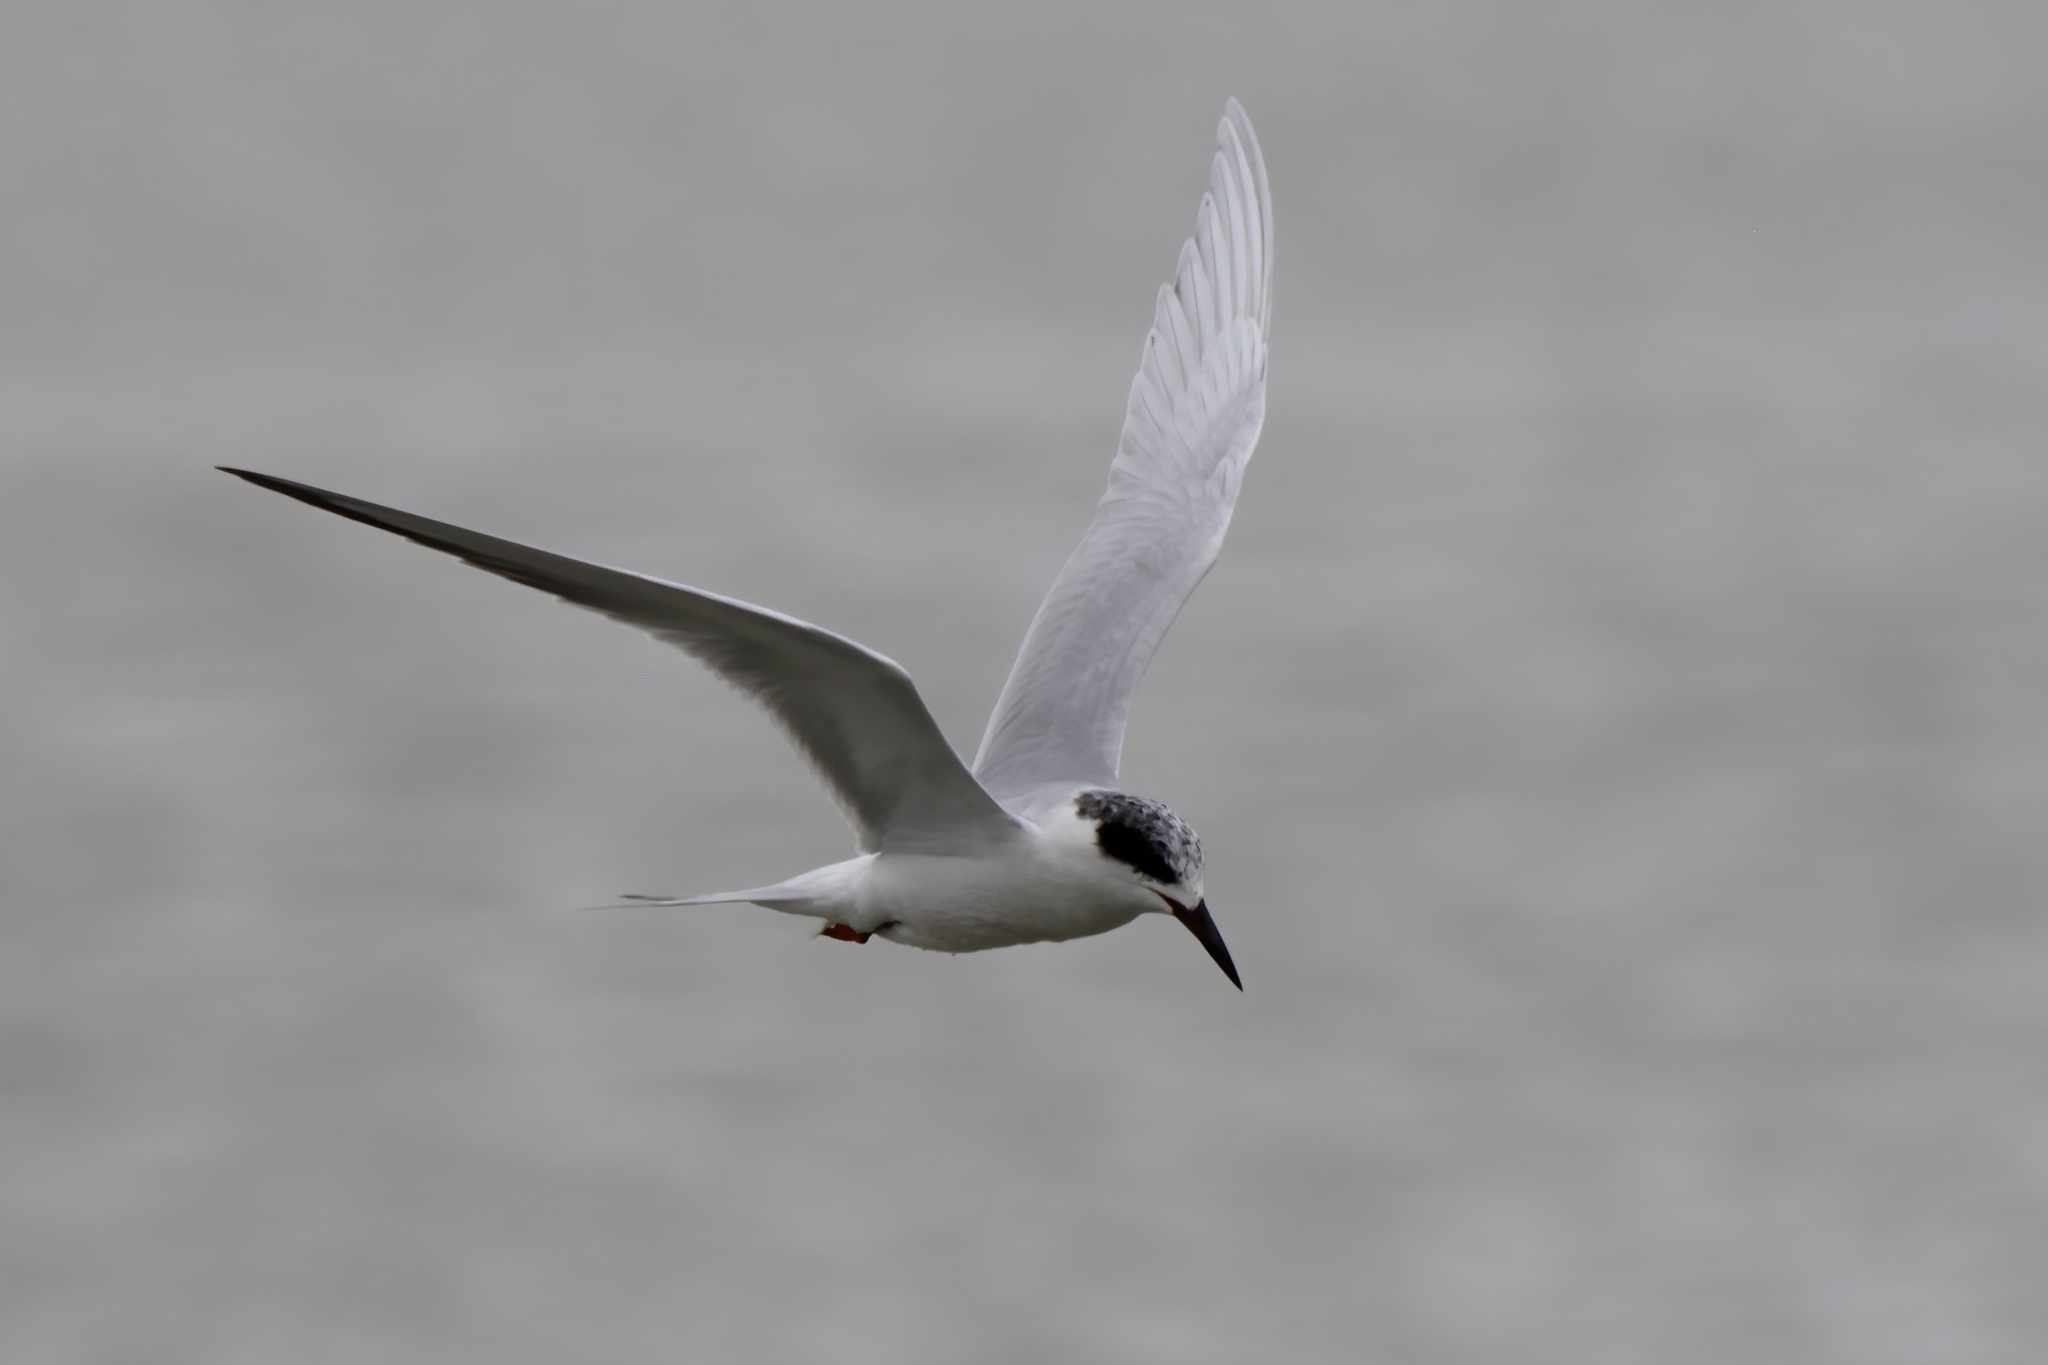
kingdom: Animalia
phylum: Chordata
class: Aves
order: Charadriiformes
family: Laridae
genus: Sterna
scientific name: Sterna forsteri
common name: Forster's tern
